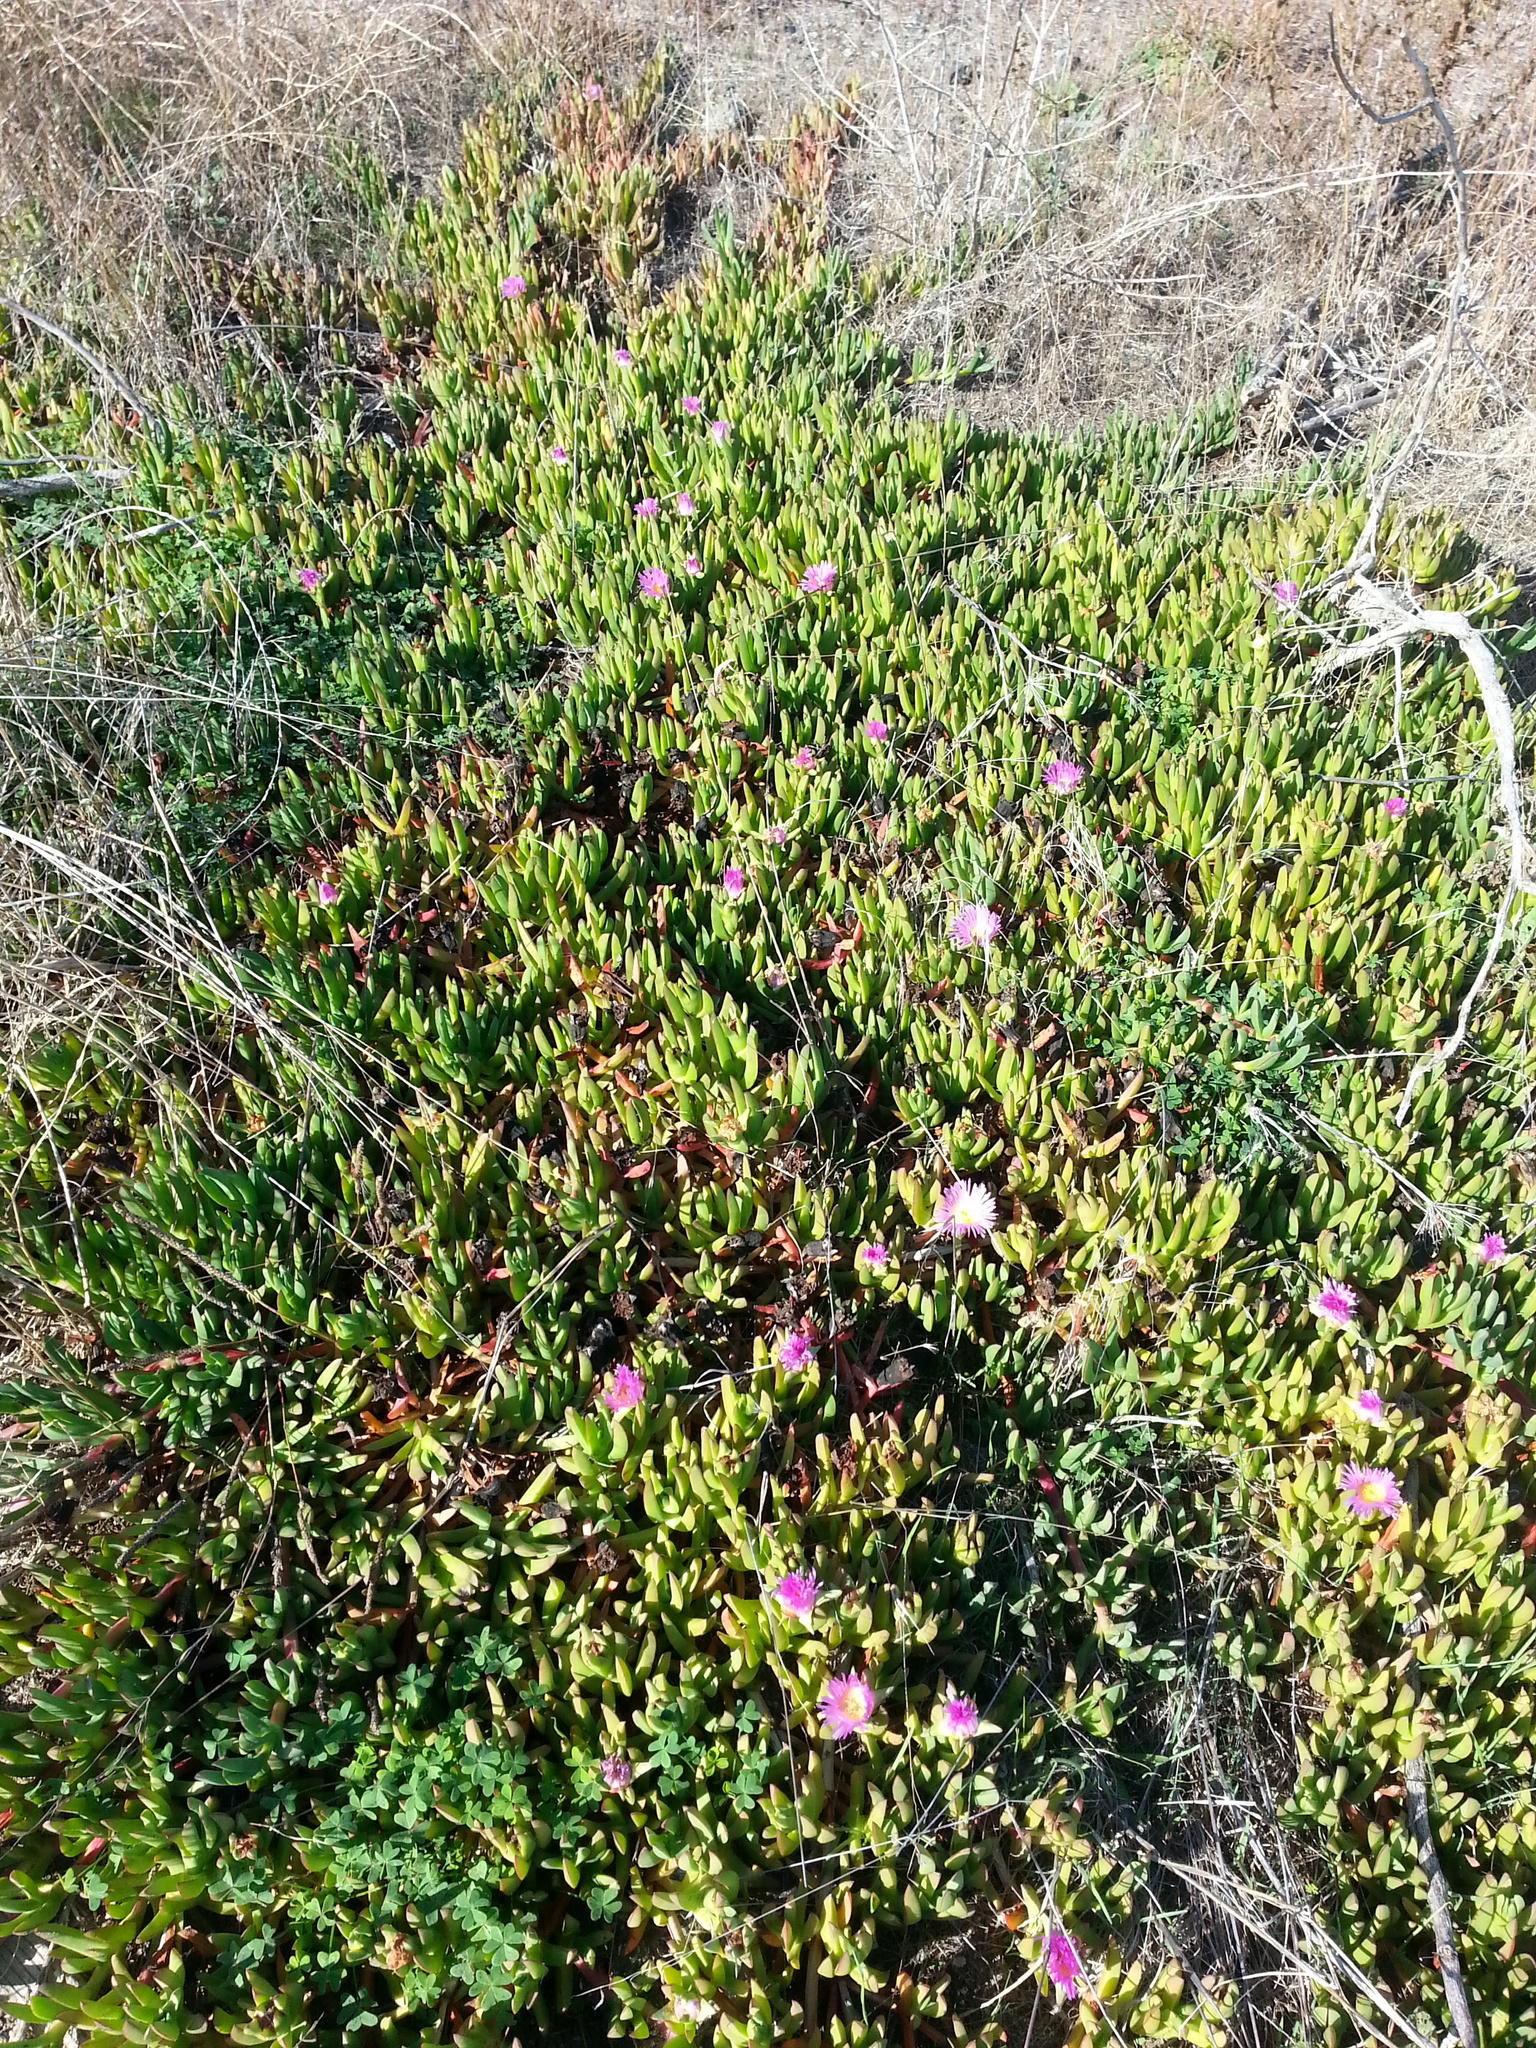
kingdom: Plantae
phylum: Tracheophyta
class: Magnoliopsida
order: Caryophyllales
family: Aizoaceae
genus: Carpobrotus
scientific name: Carpobrotus edulis
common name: Hottentot-fig
